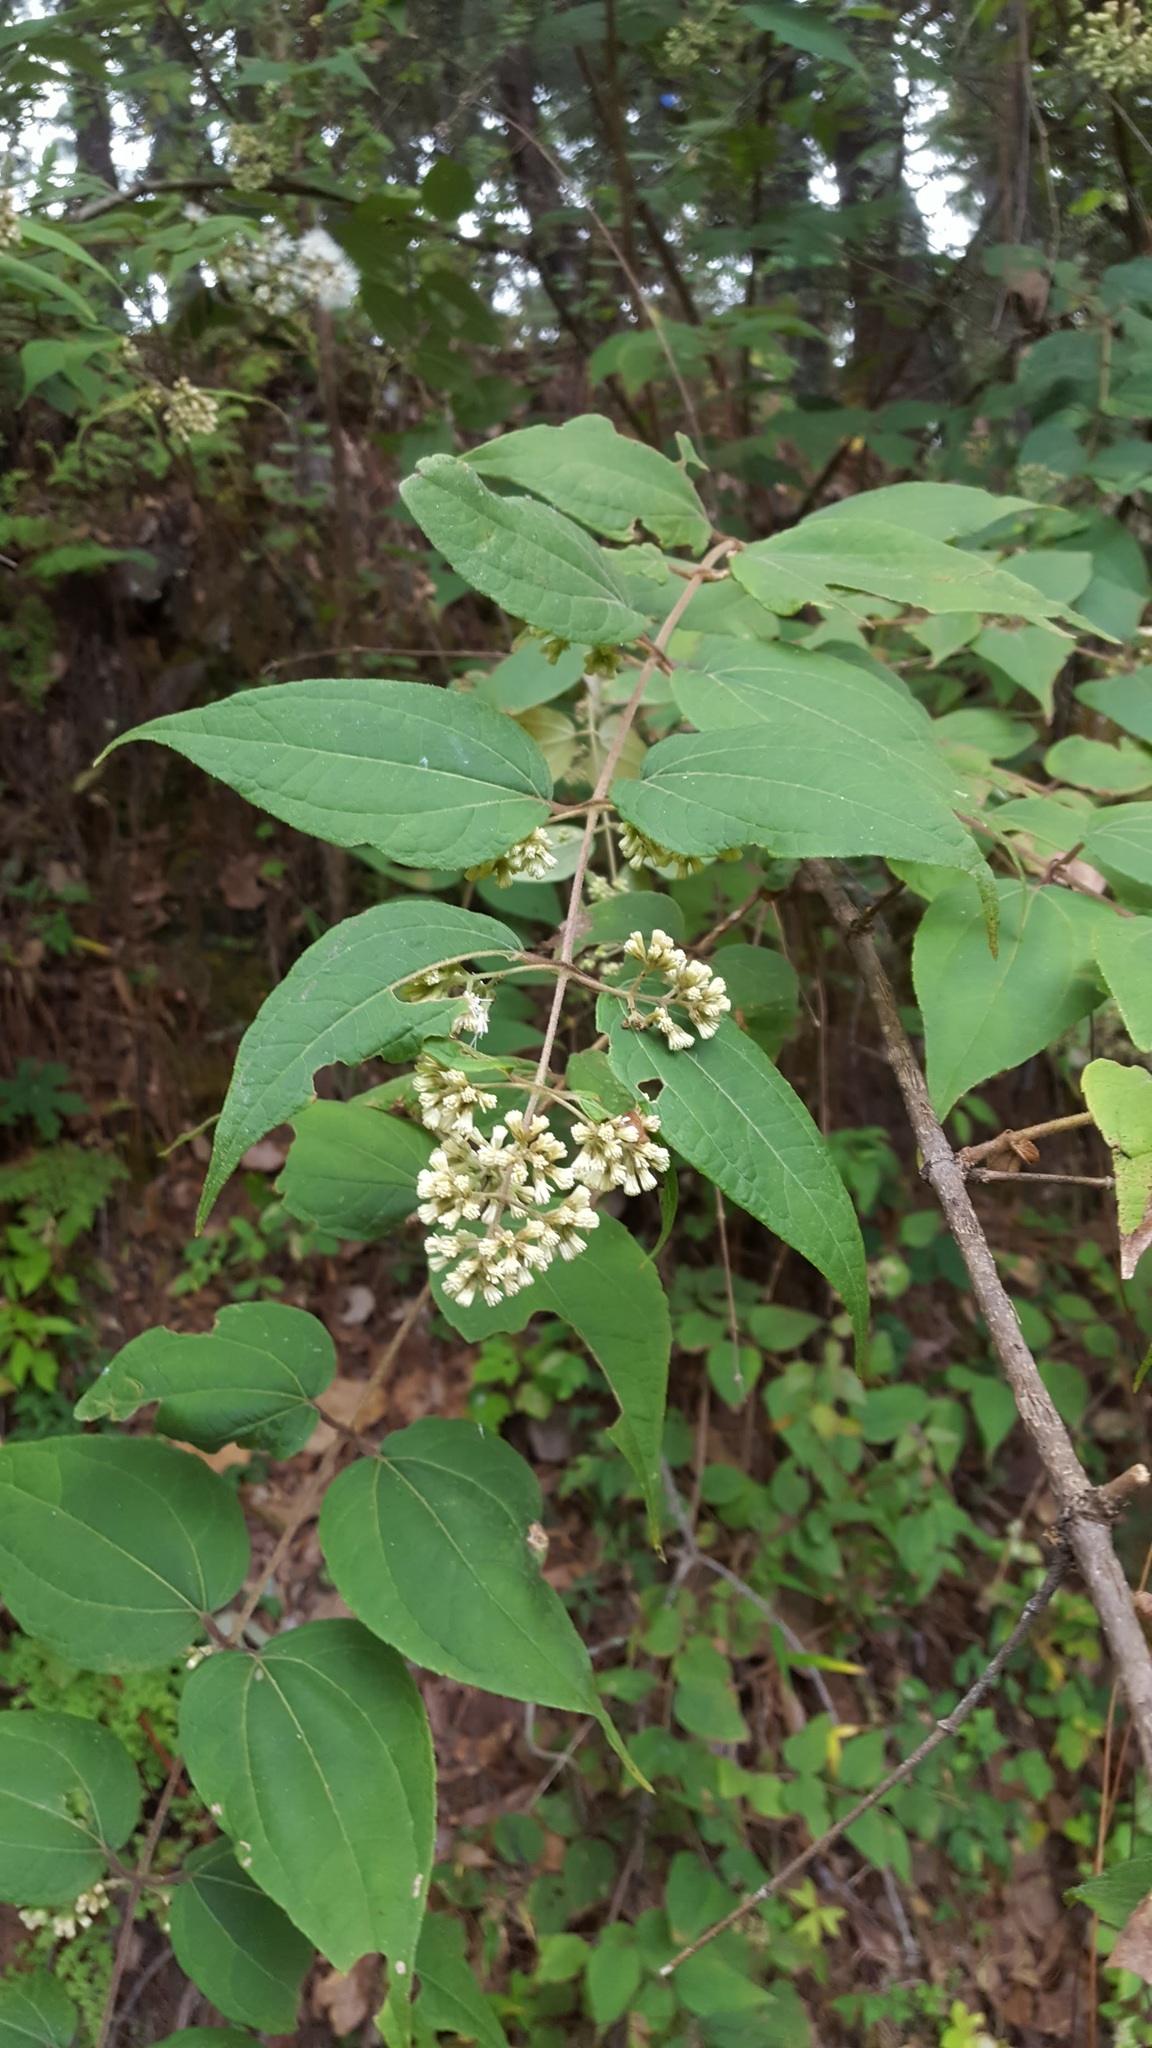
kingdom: Plantae
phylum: Tracheophyta
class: Magnoliopsida
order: Asterales
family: Asteraceae
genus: Ageratina
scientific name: Ageratina areolaris
